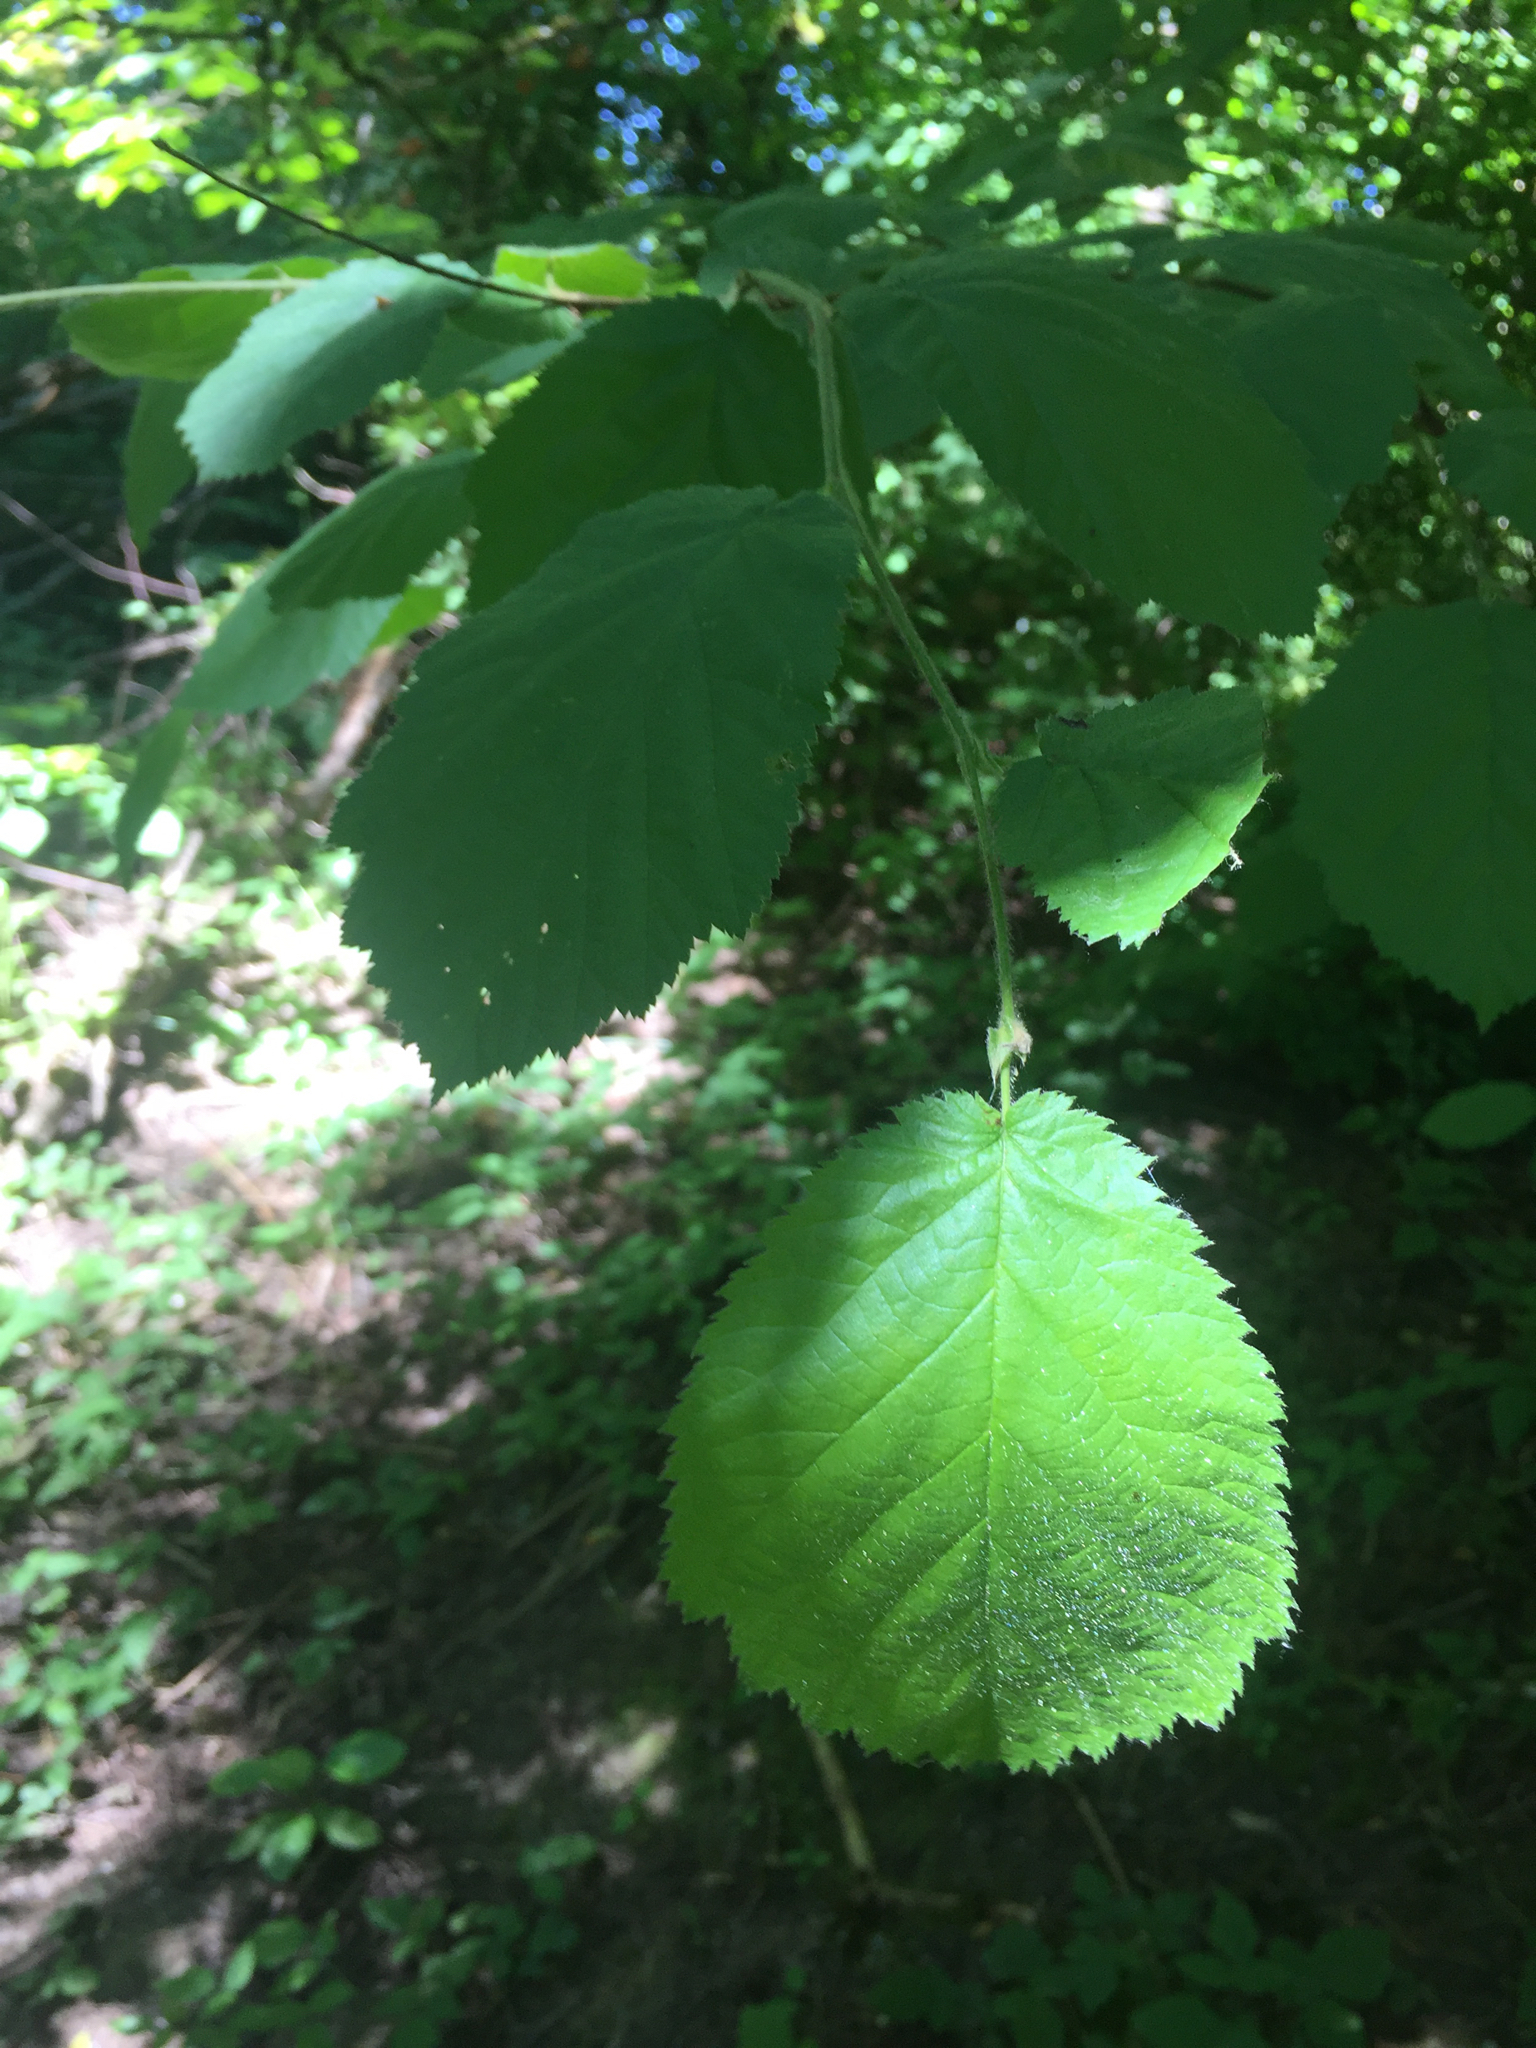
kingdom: Plantae
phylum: Tracheophyta
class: Magnoliopsida
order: Fagales
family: Betulaceae
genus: Corylus
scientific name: Corylus cornuta
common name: Beaked hazel
